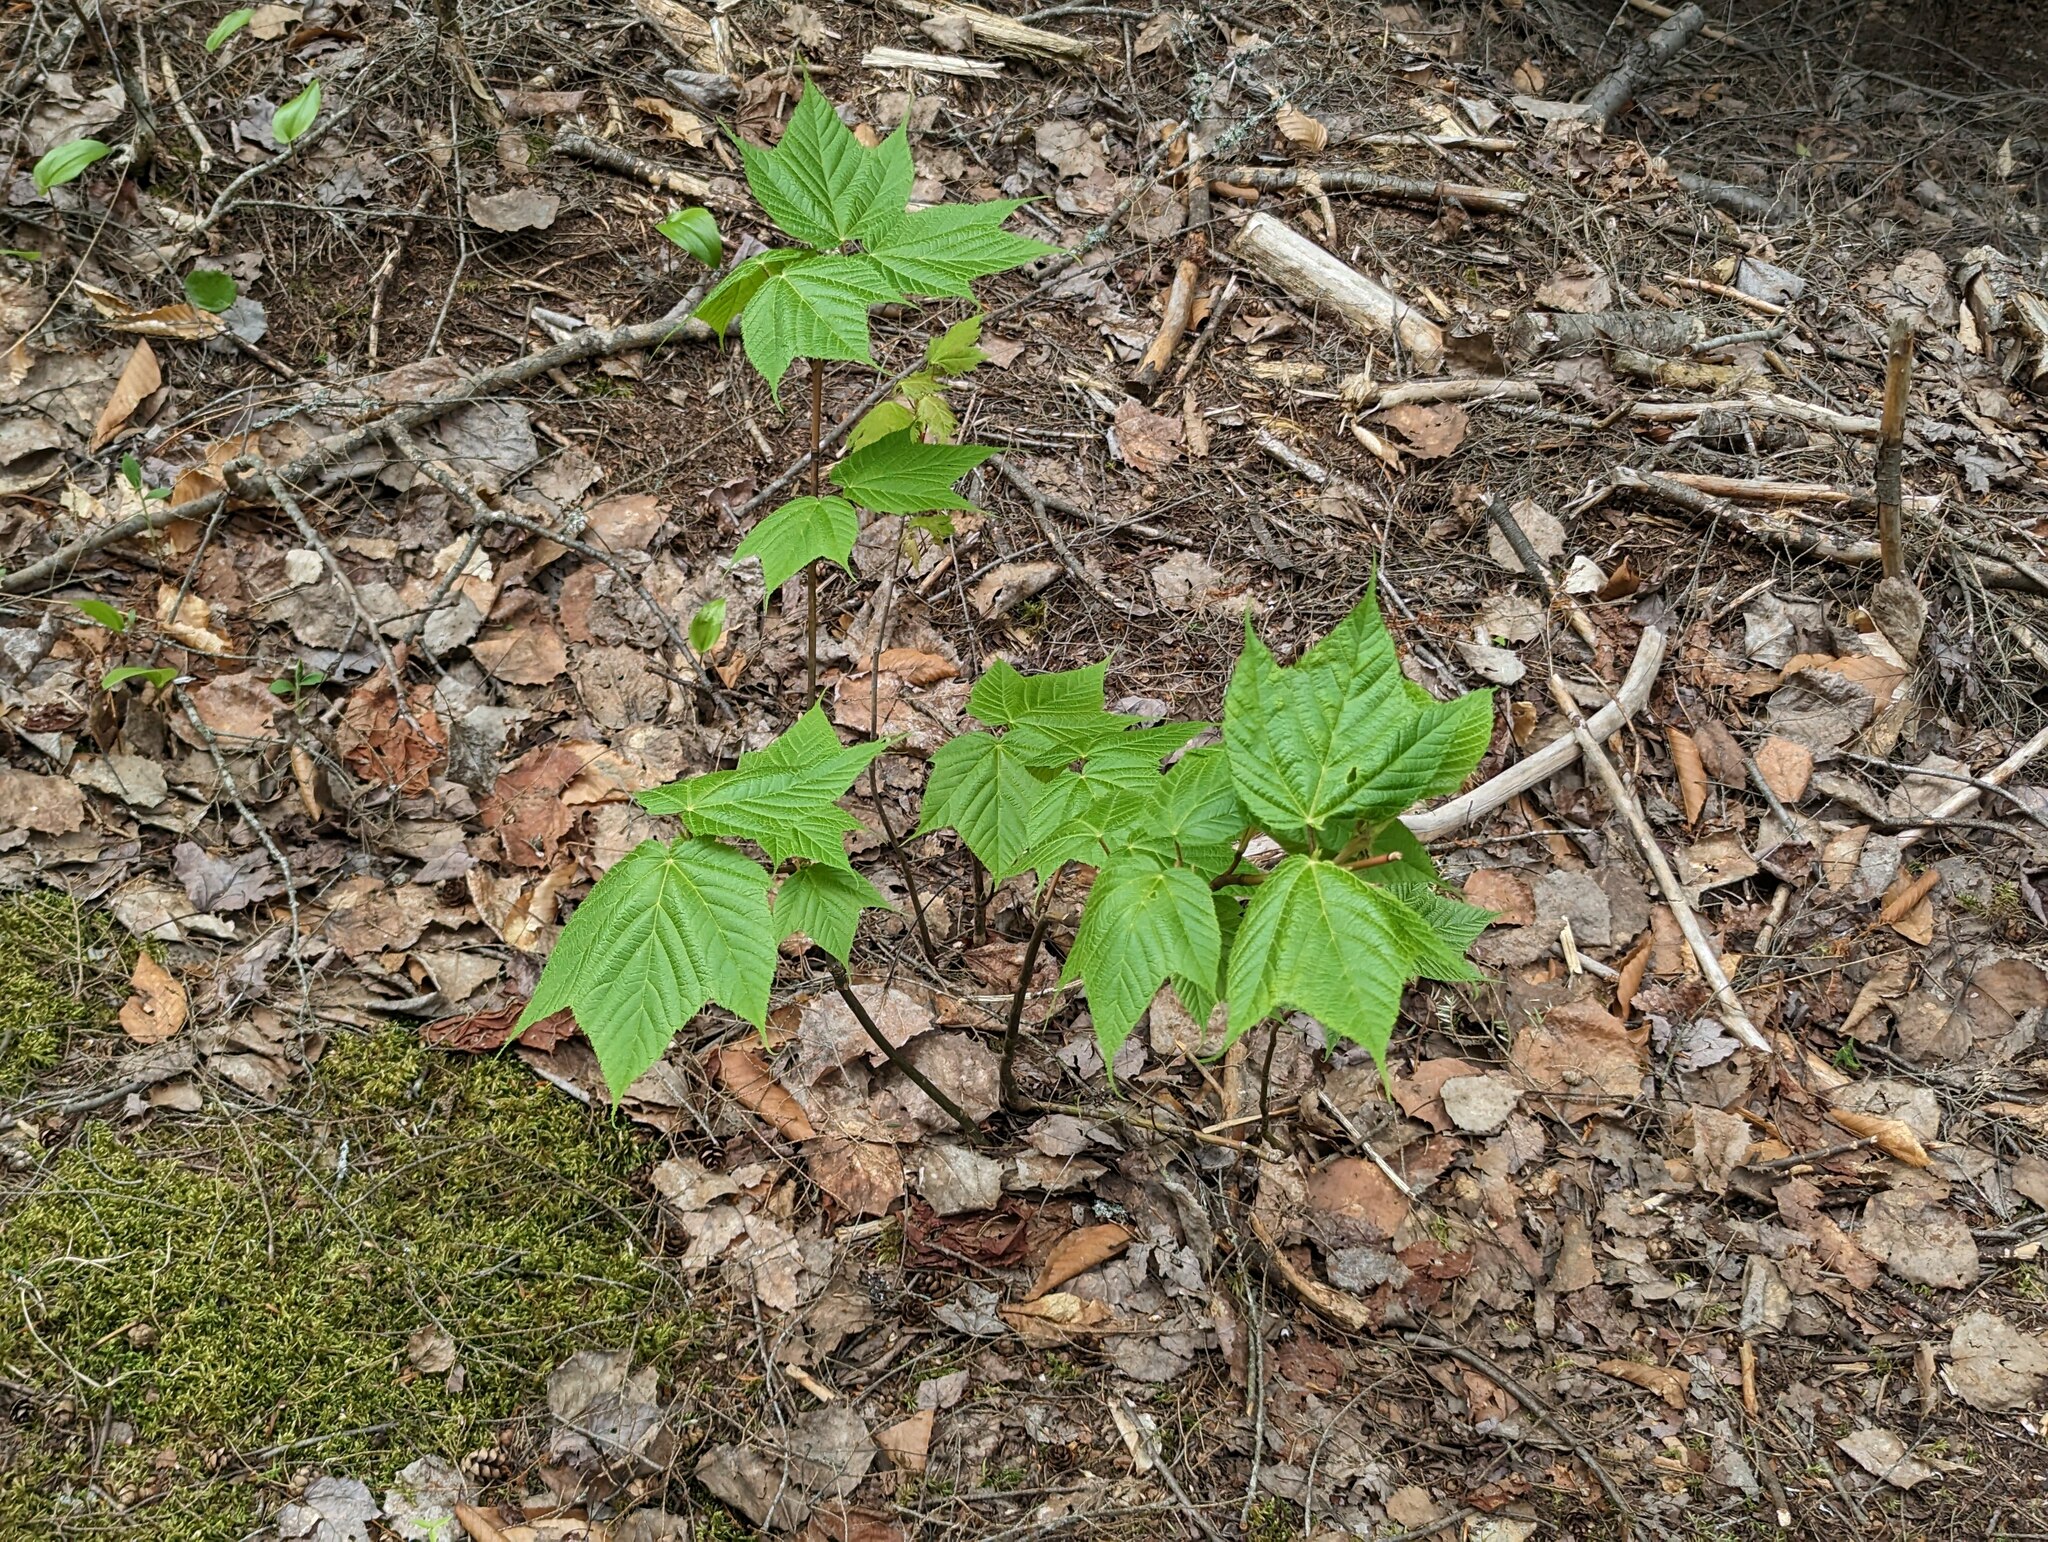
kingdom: Plantae
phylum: Tracheophyta
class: Magnoliopsida
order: Sapindales
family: Sapindaceae
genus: Acer
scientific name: Acer pensylvanicum
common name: Moosewood
